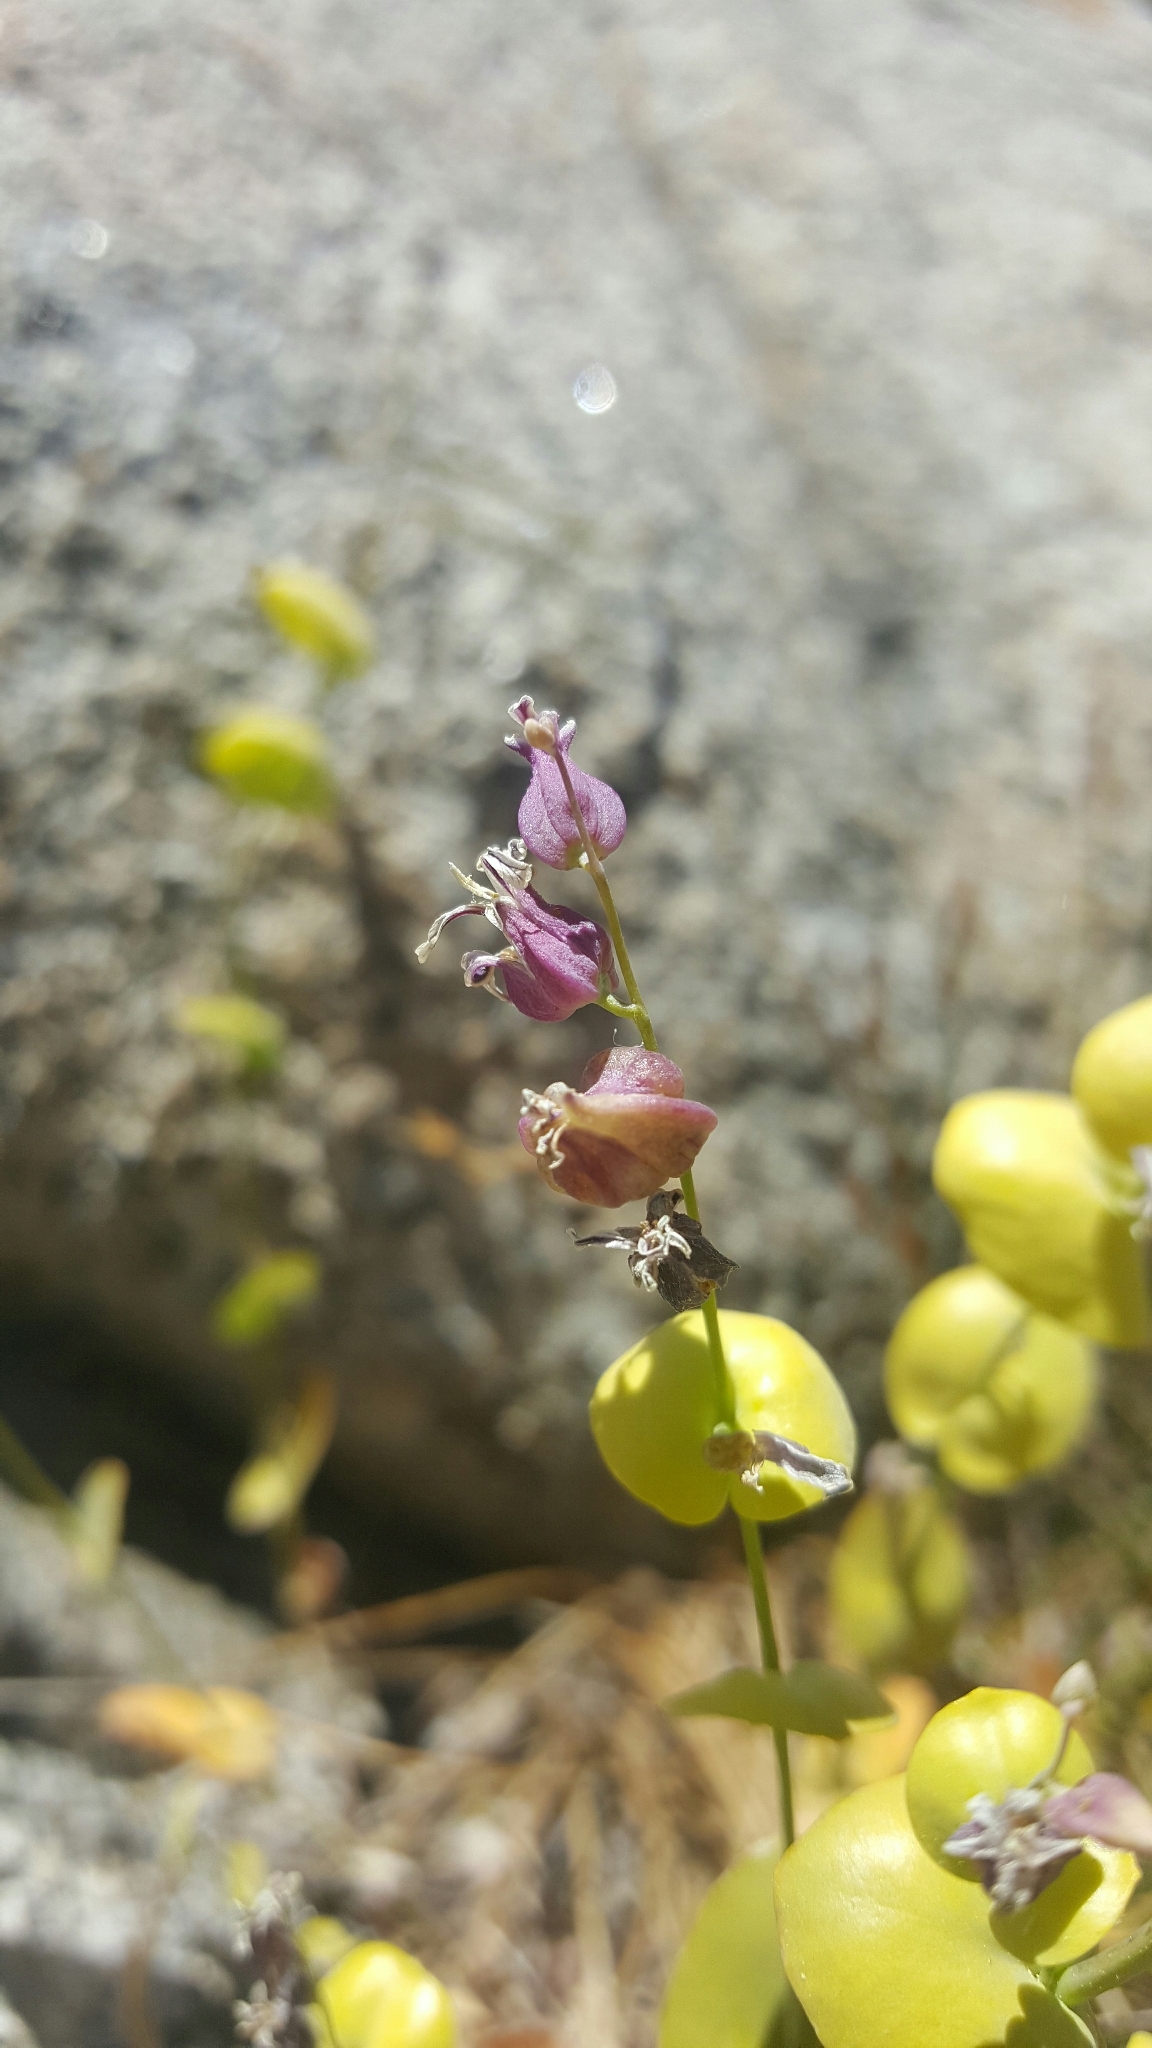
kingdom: Plantae
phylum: Tracheophyta
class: Magnoliopsida
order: Brassicales
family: Brassicaceae
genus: Streptanthus
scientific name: Streptanthus tortuosus
